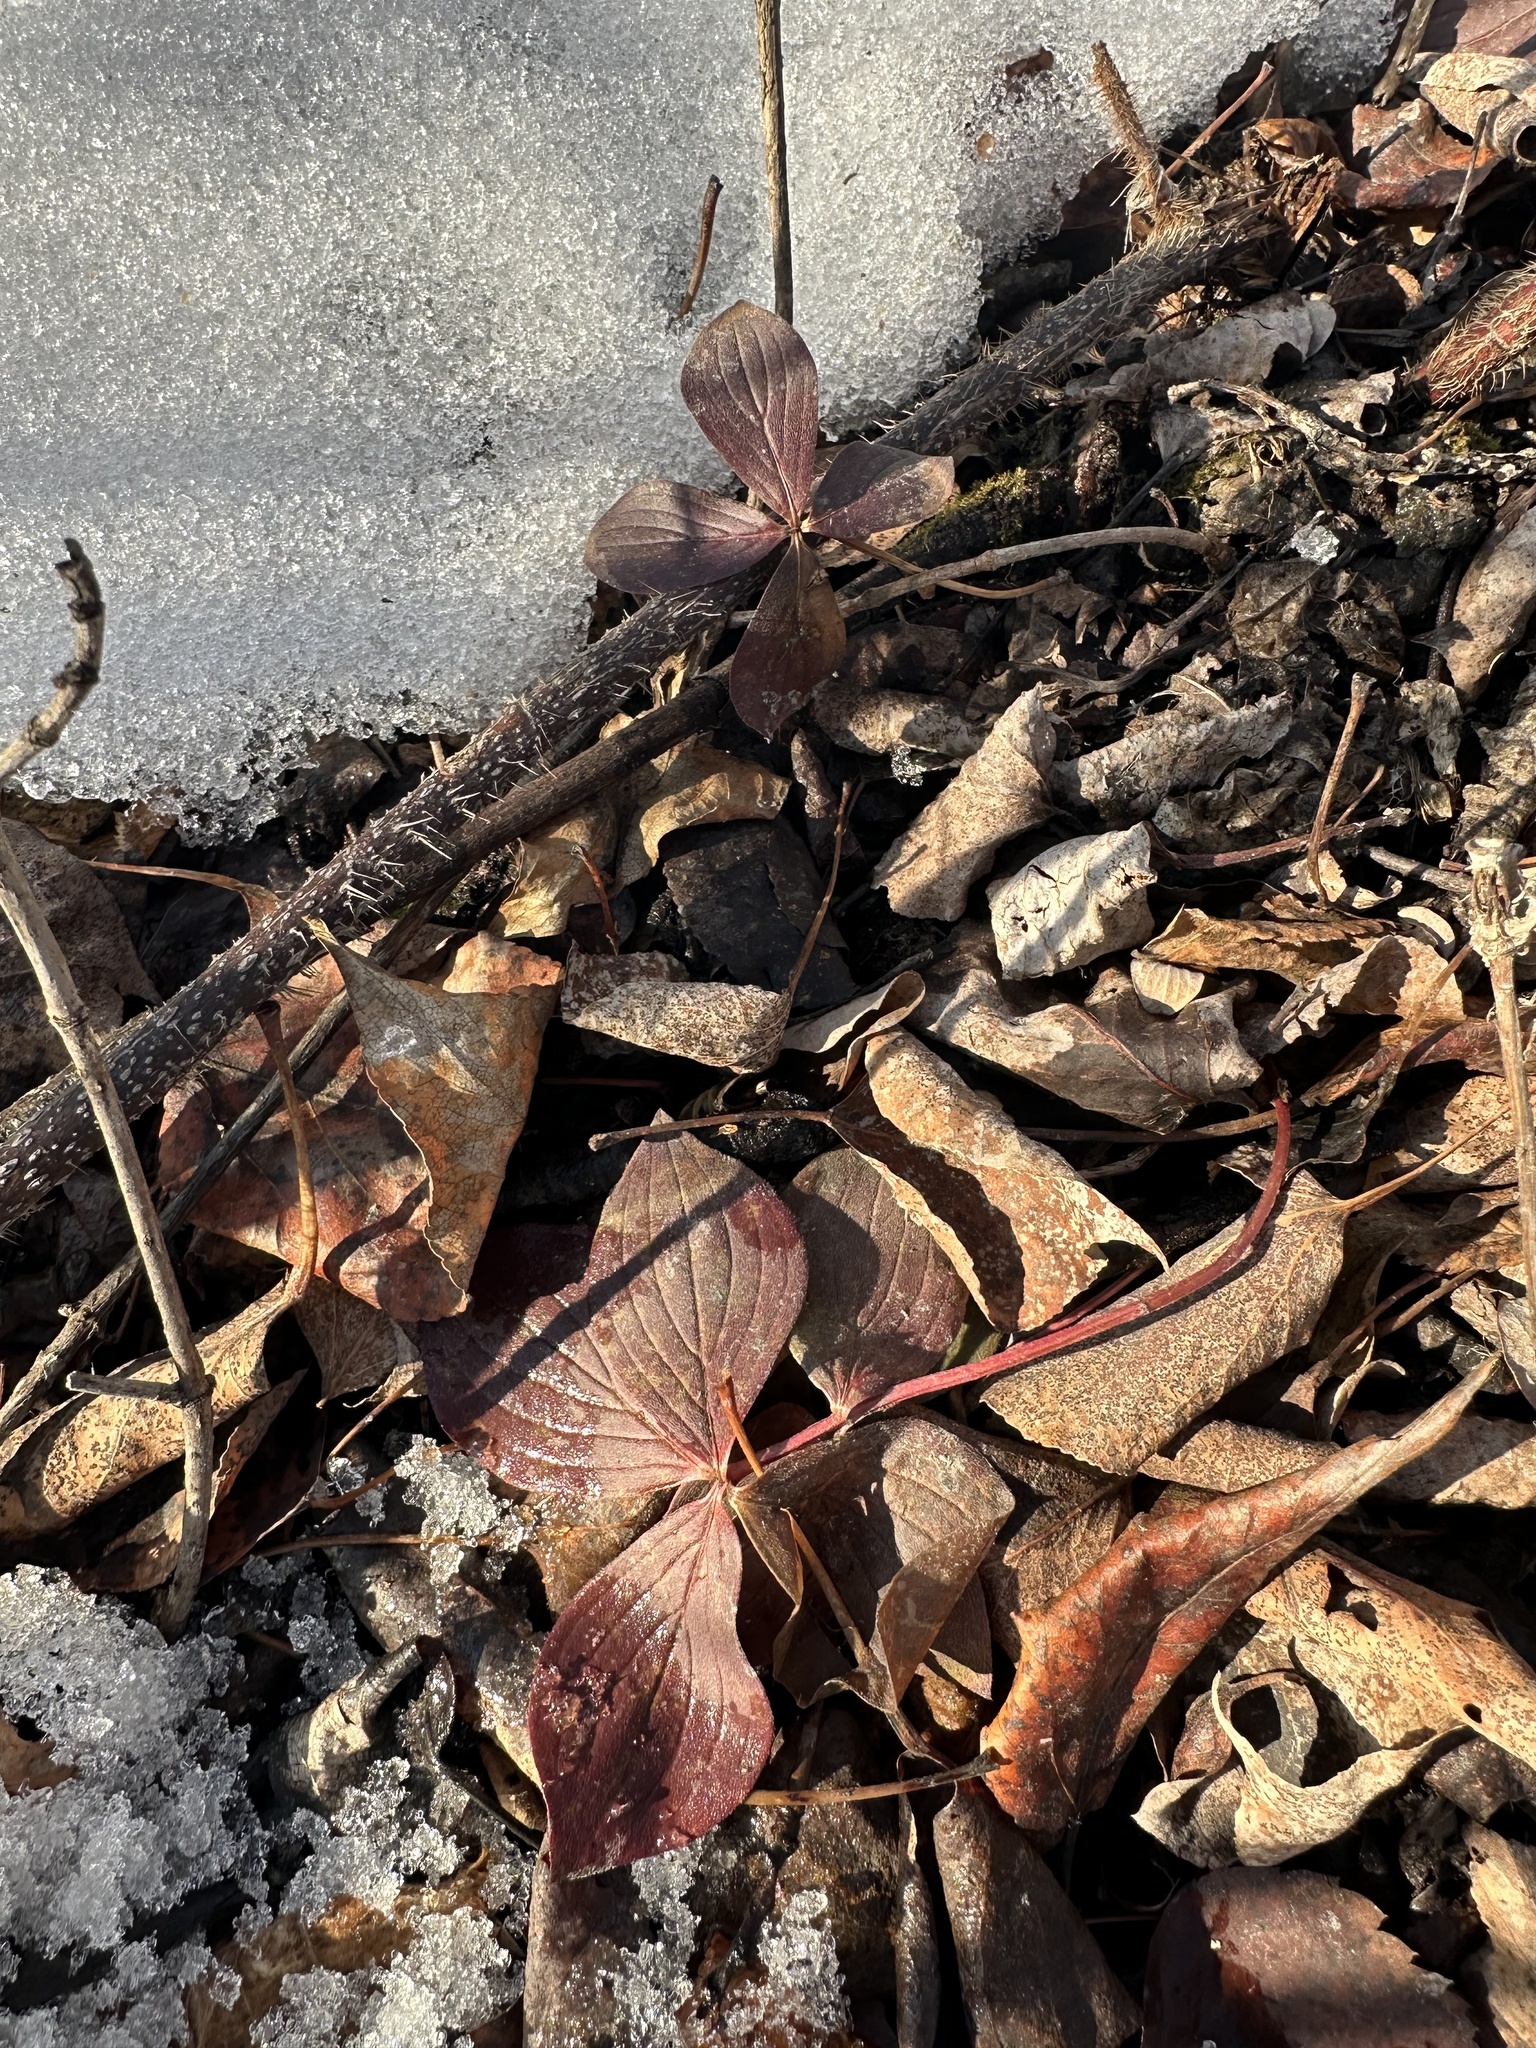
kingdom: Plantae
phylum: Tracheophyta
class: Magnoliopsida
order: Cornales
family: Cornaceae
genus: Cornus
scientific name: Cornus canadensis
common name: Creeping dogwood
